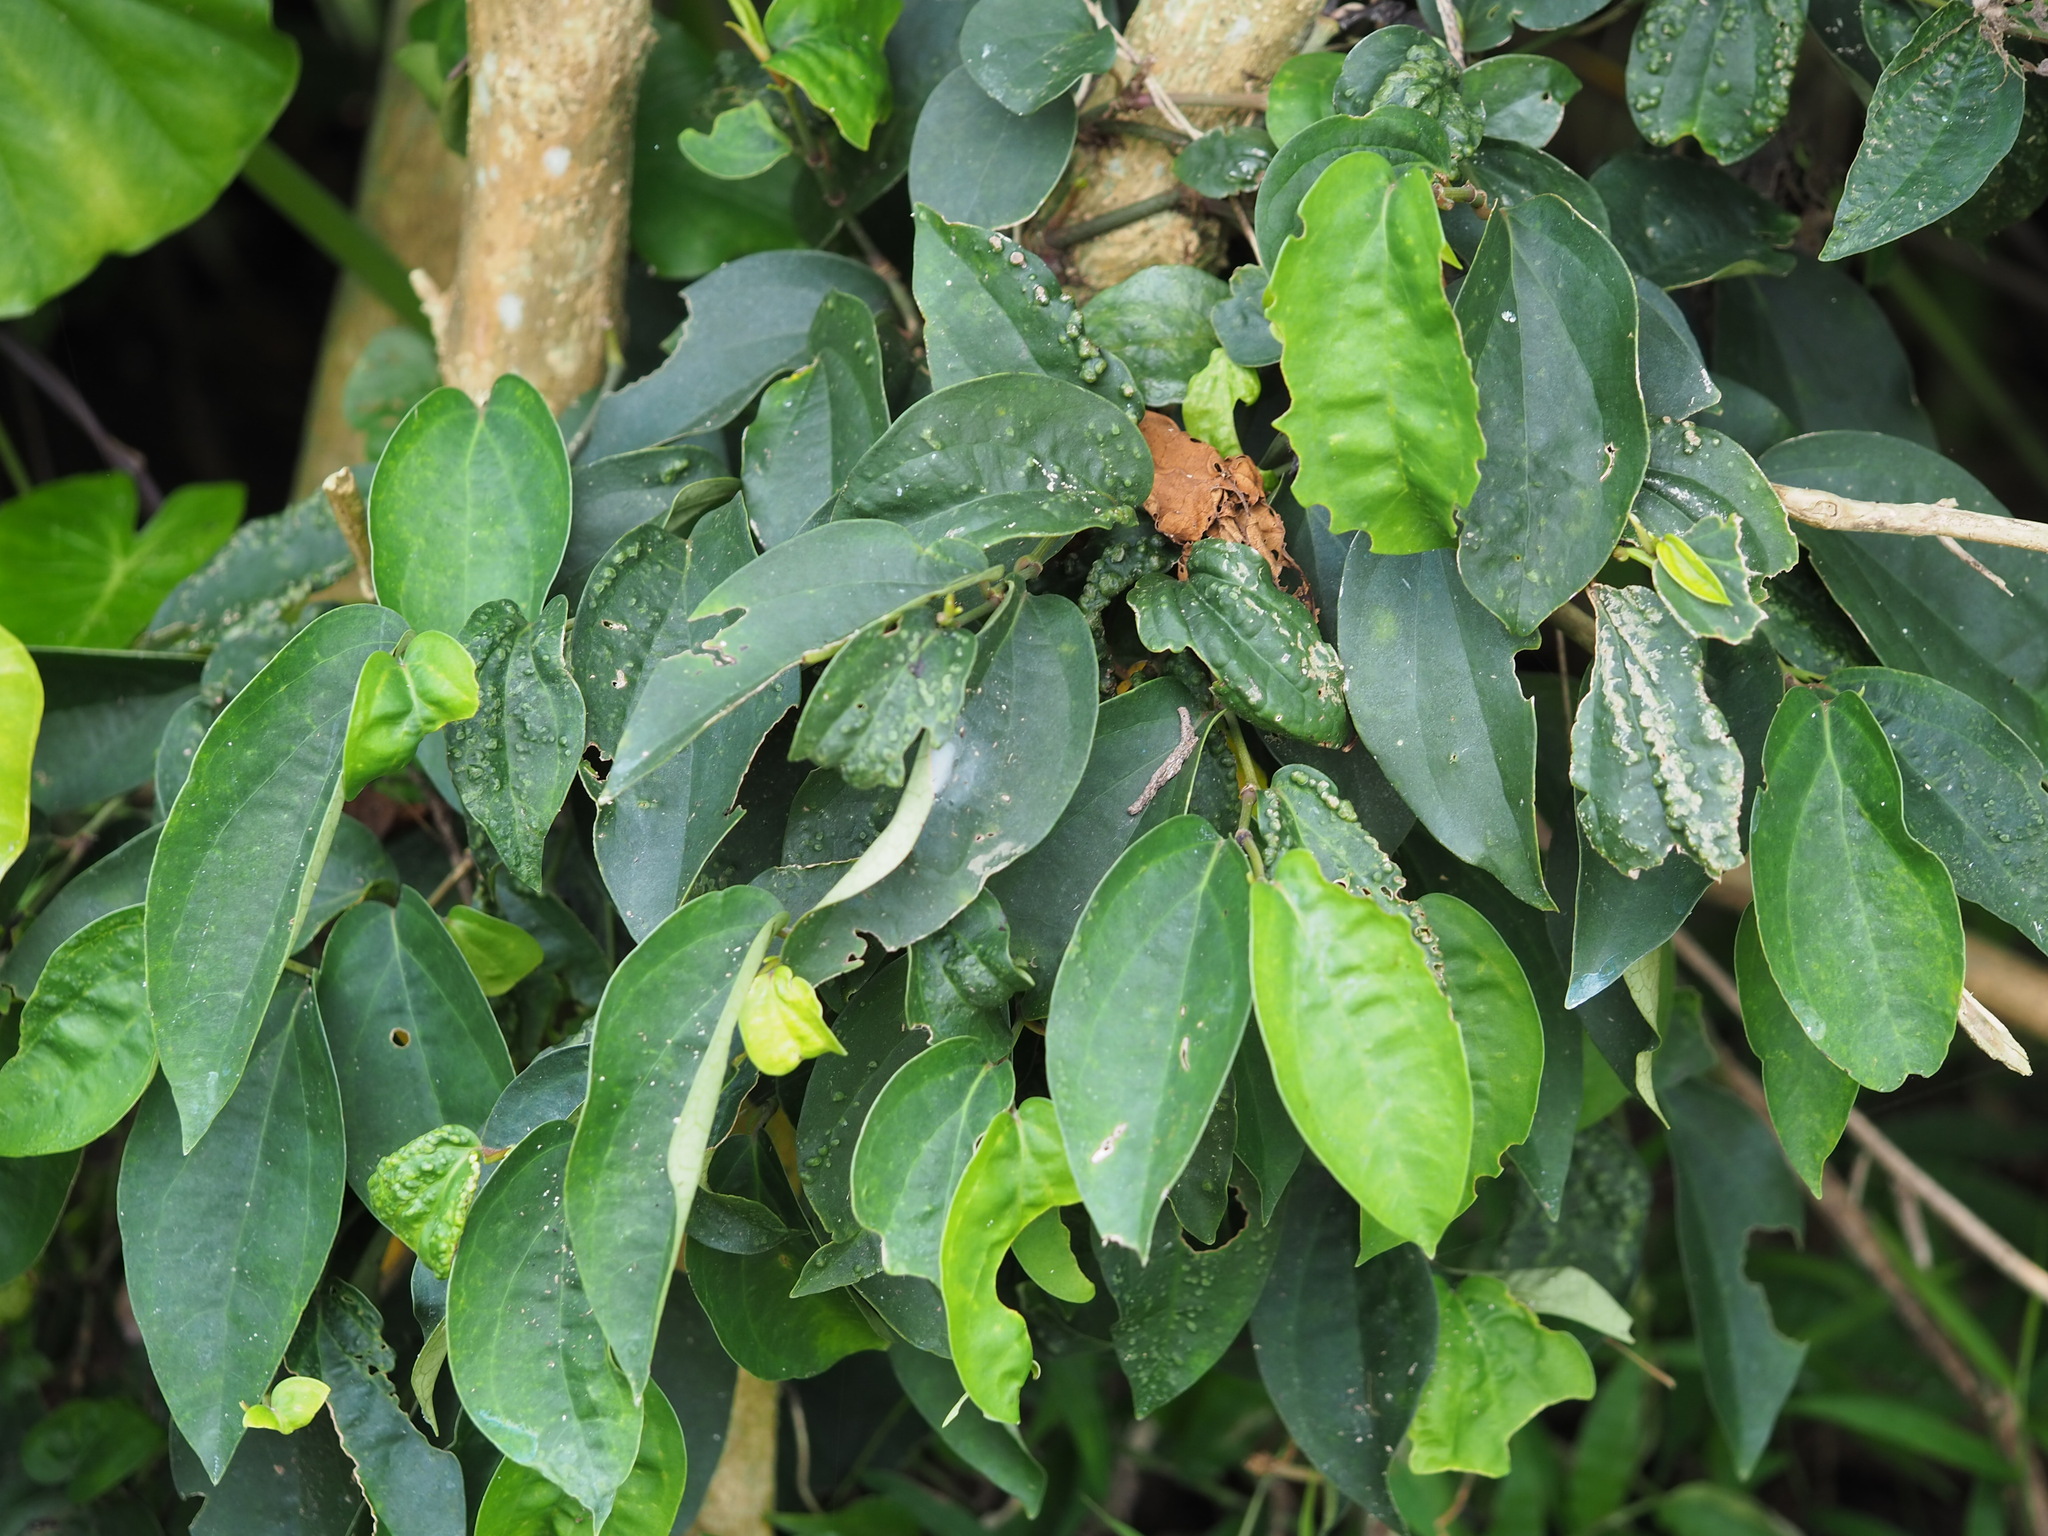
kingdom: Plantae
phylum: Tracheophyta
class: Magnoliopsida
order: Piperales
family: Piperaceae
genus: Piper
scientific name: Piper kadsura
